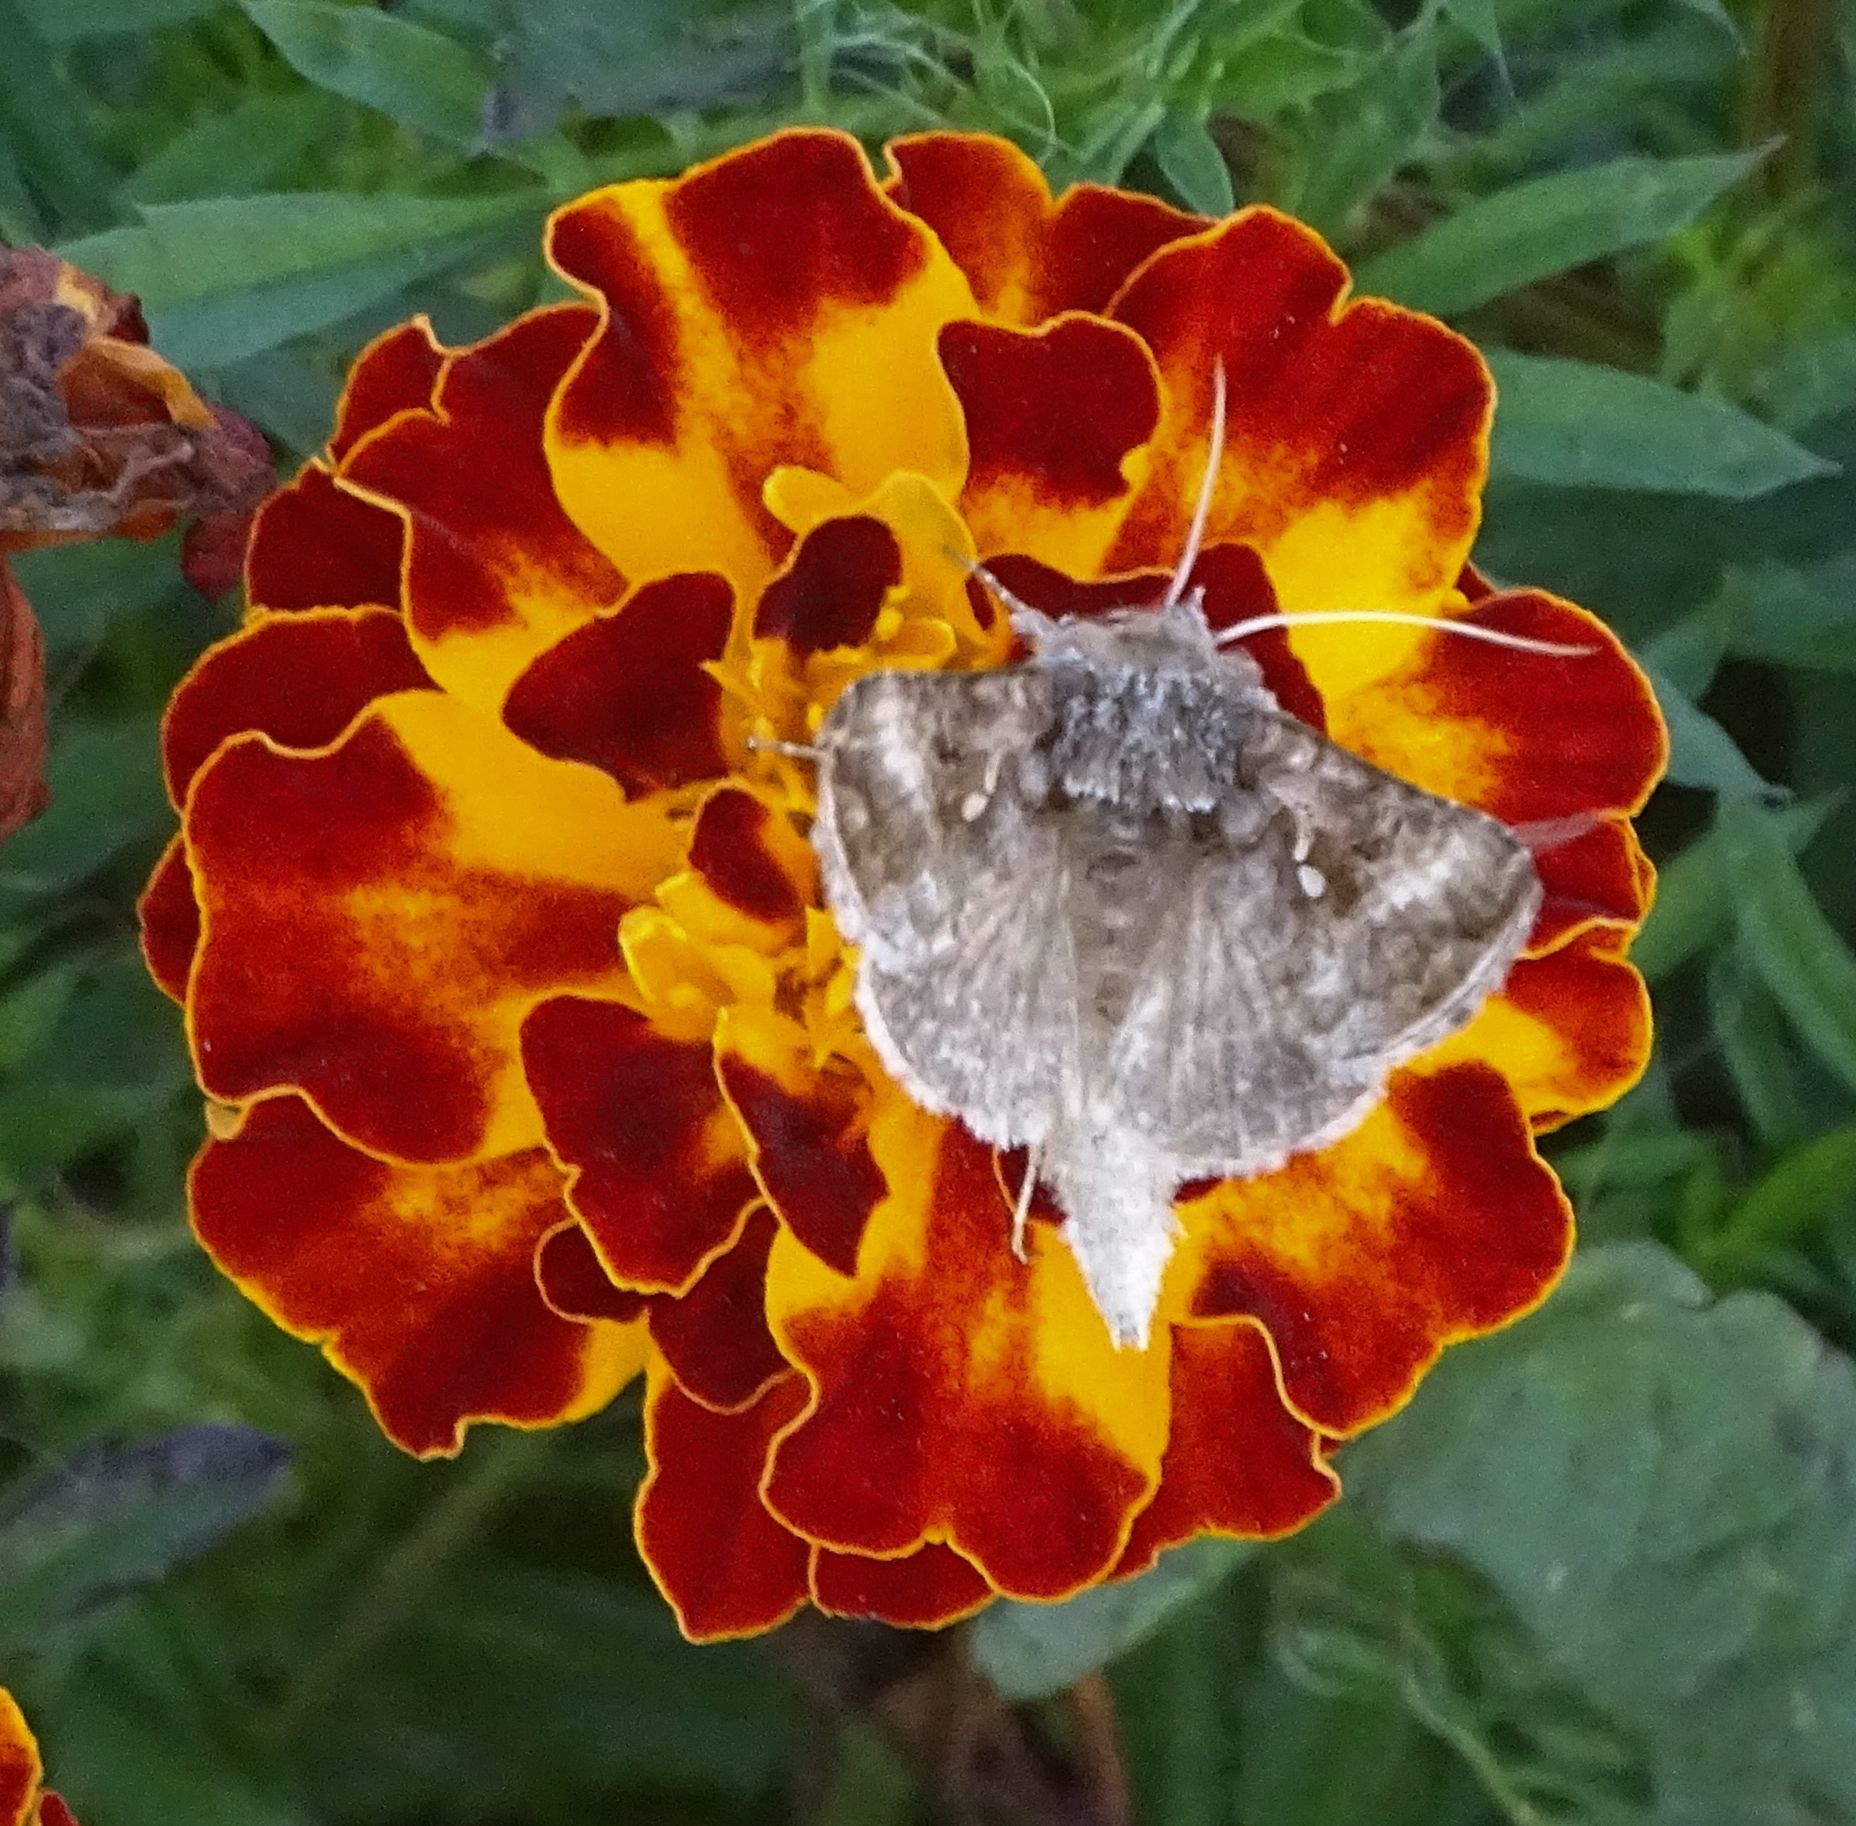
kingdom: Animalia
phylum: Arthropoda
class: Insecta
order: Lepidoptera
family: Noctuidae
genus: Autographa
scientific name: Autographa precationis
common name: Common looper moth
